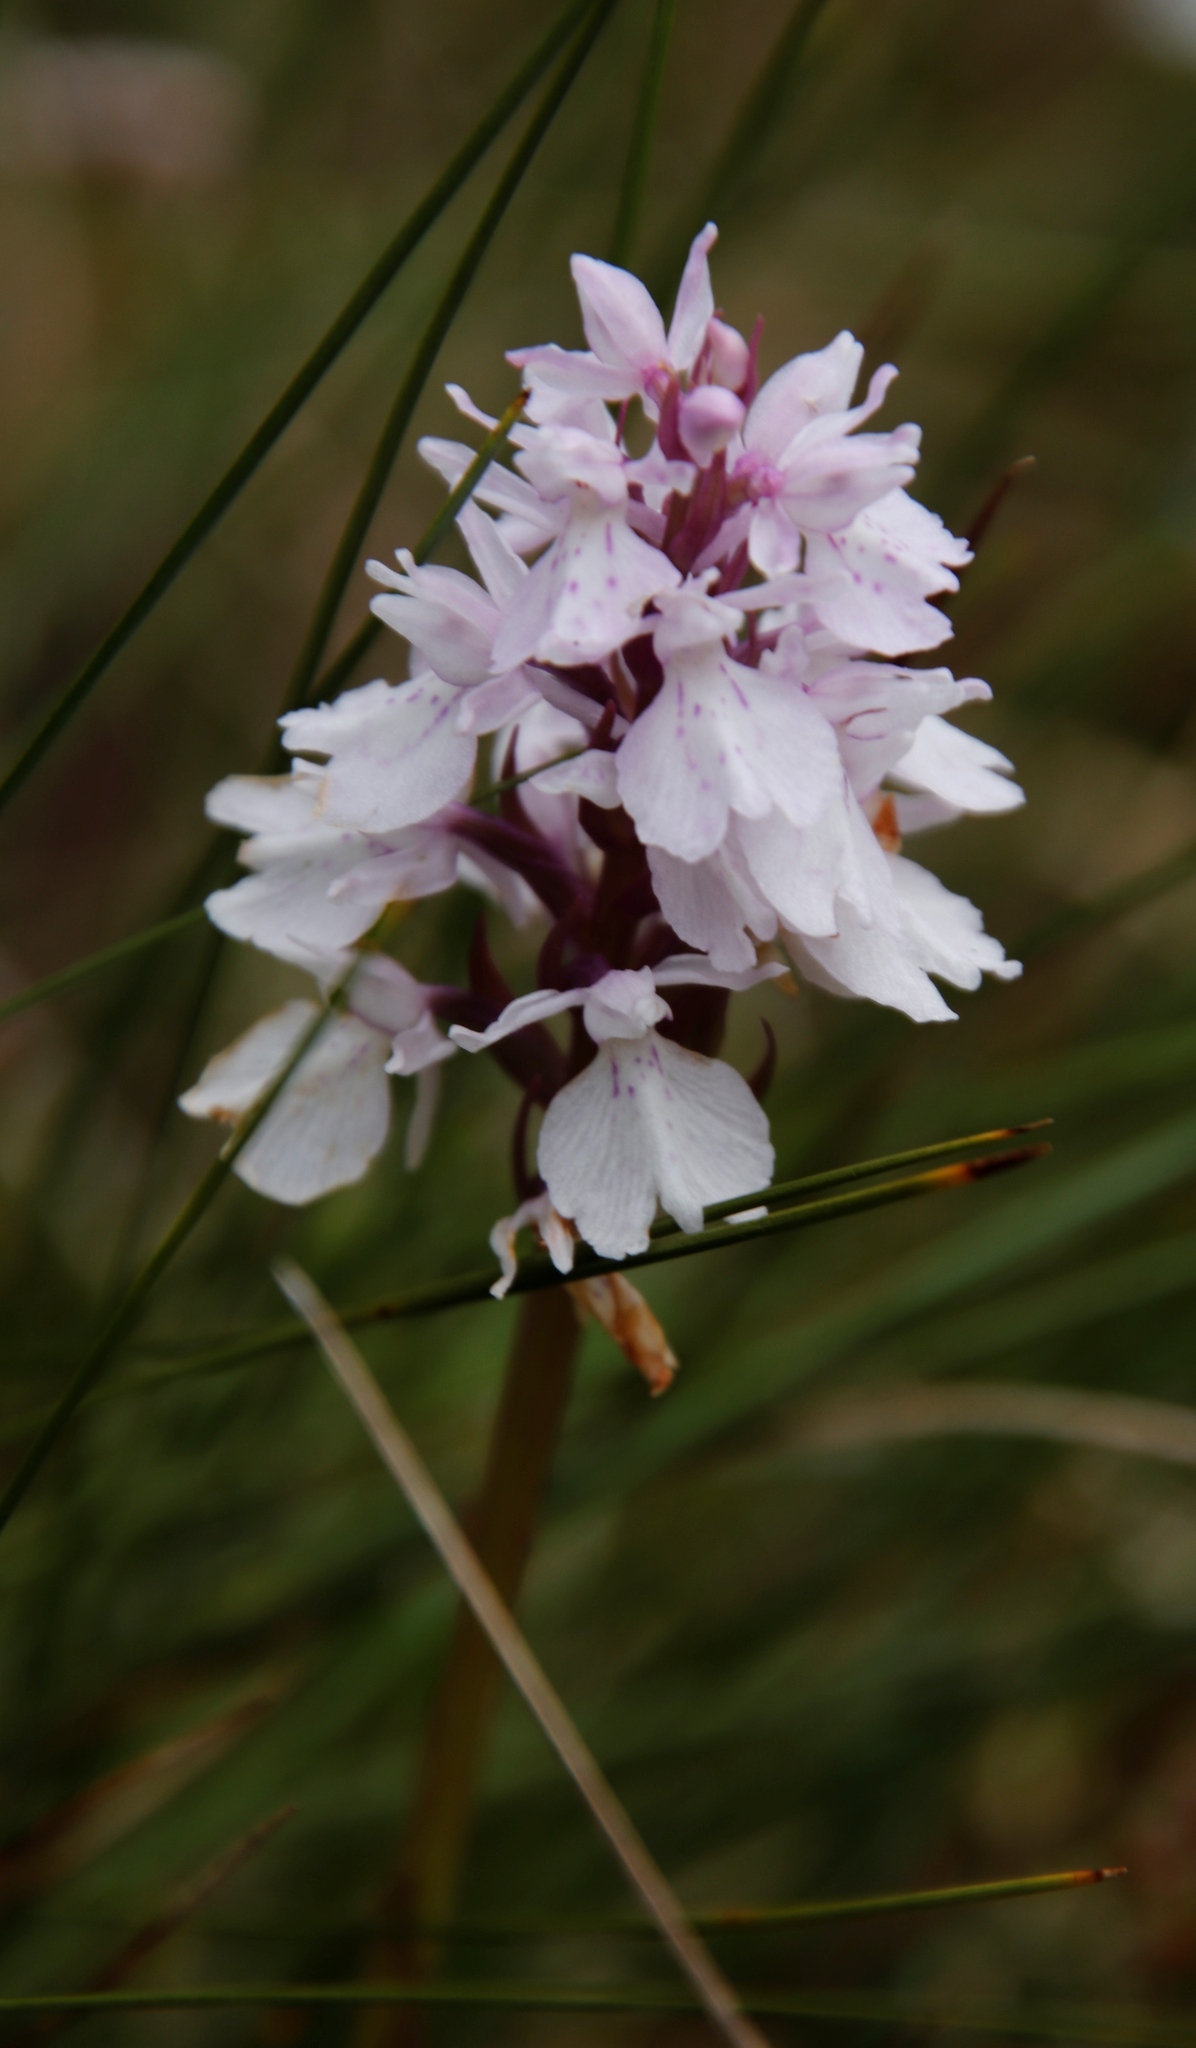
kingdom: Plantae
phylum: Tracheophyta
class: Liliopsida
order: Asparagales
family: Orchidaceae
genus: Dactylorhiza
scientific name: Dactylorhiza maculata
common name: Heath spotted-orchid
